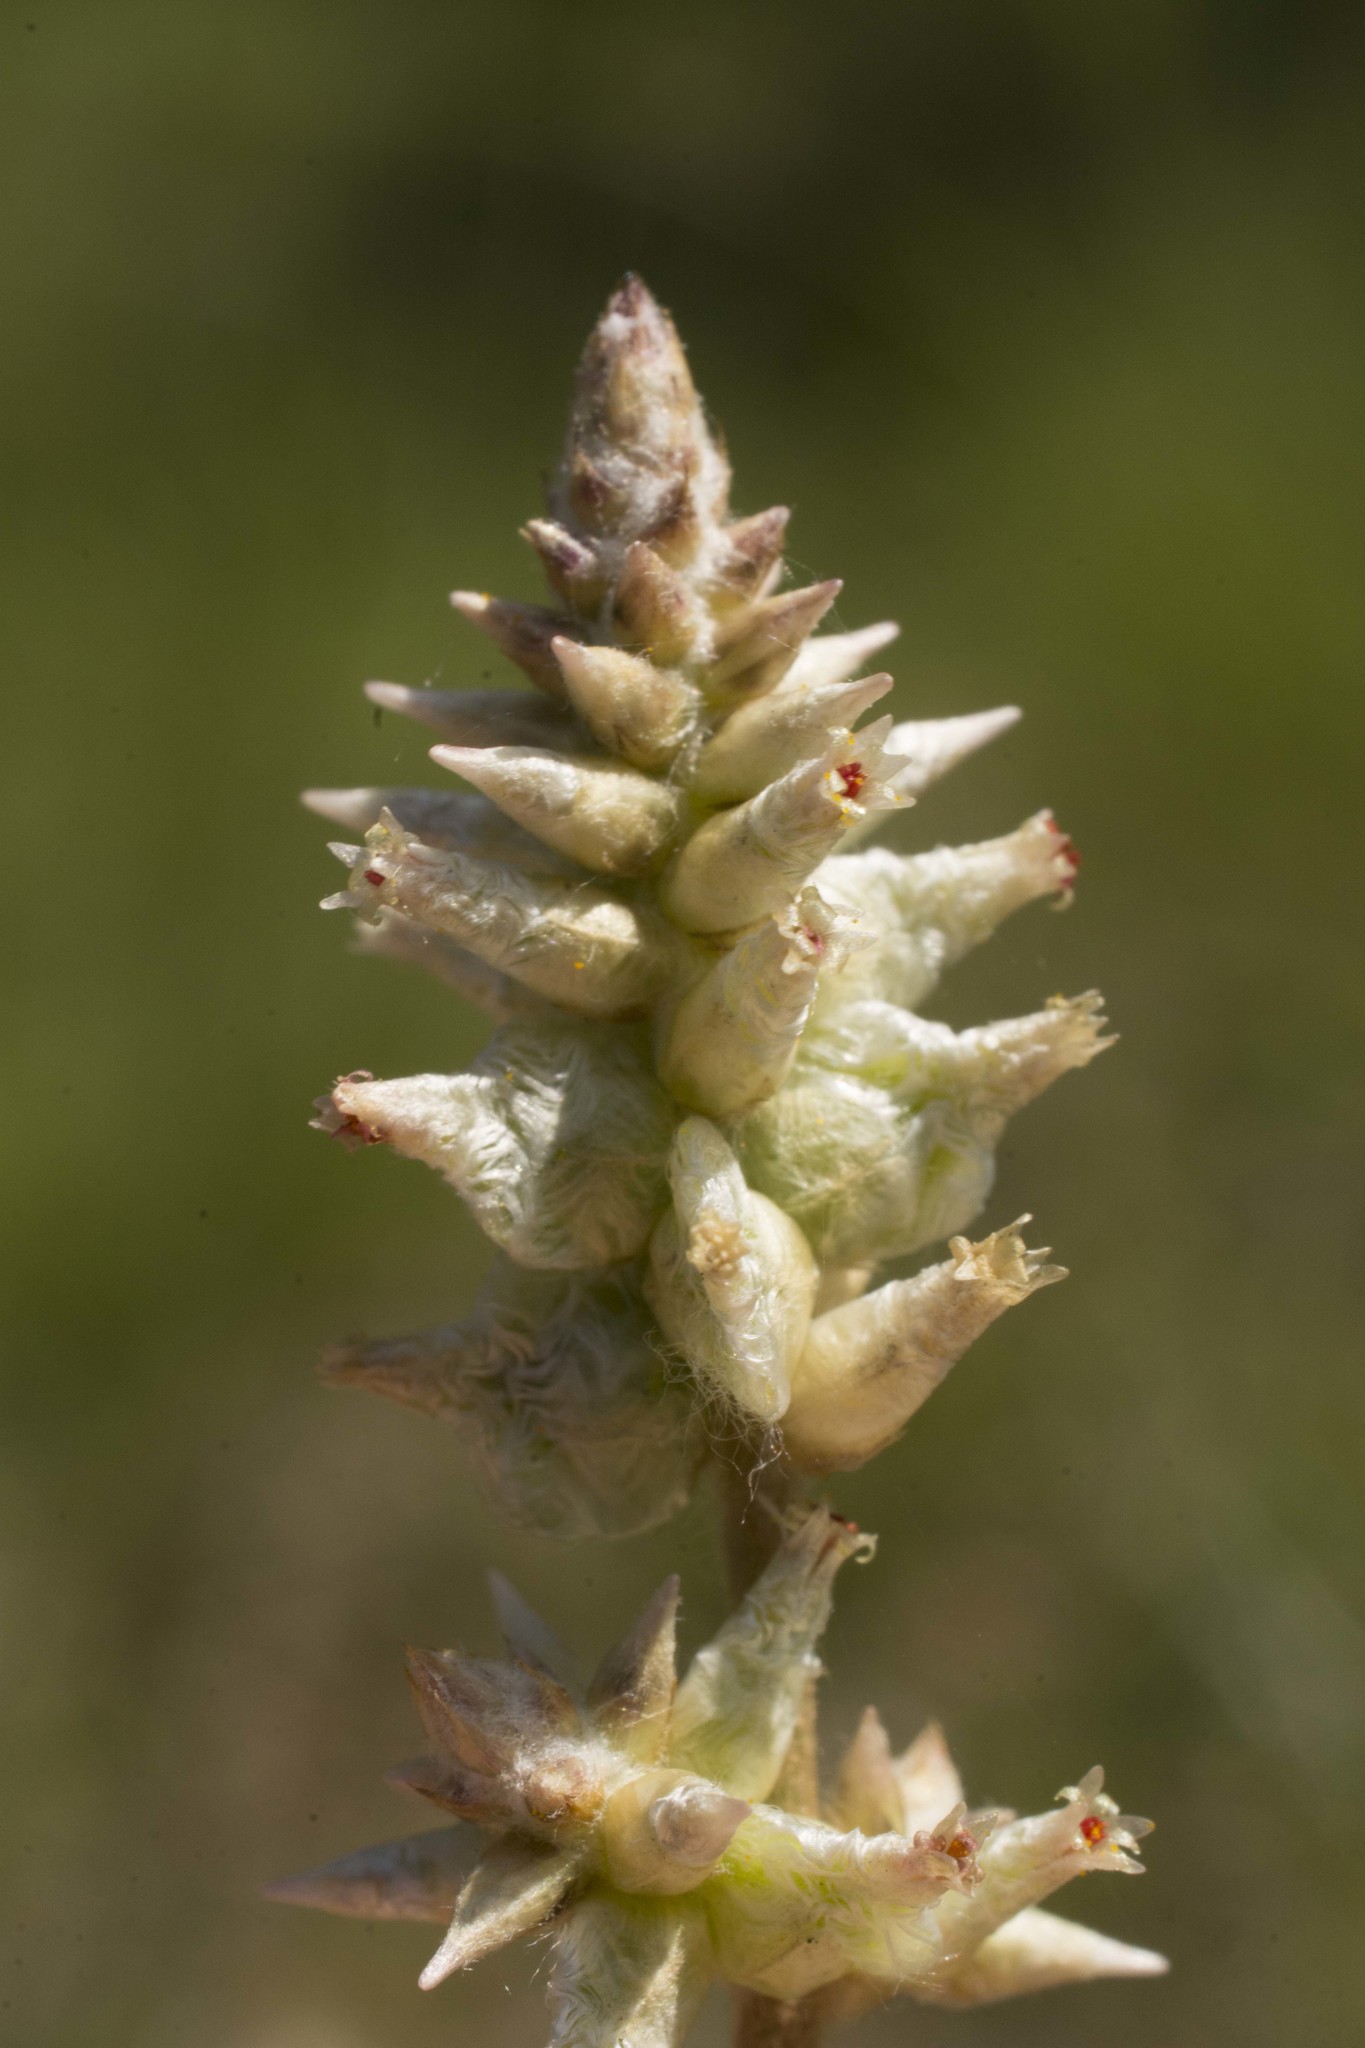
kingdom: Plantae
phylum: Tracheophyta
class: Magnoliopsida
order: Caryophyllales
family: Amaranthaceae
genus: Froelichia
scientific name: Froelichia floridana
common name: Florida snake-cotton
